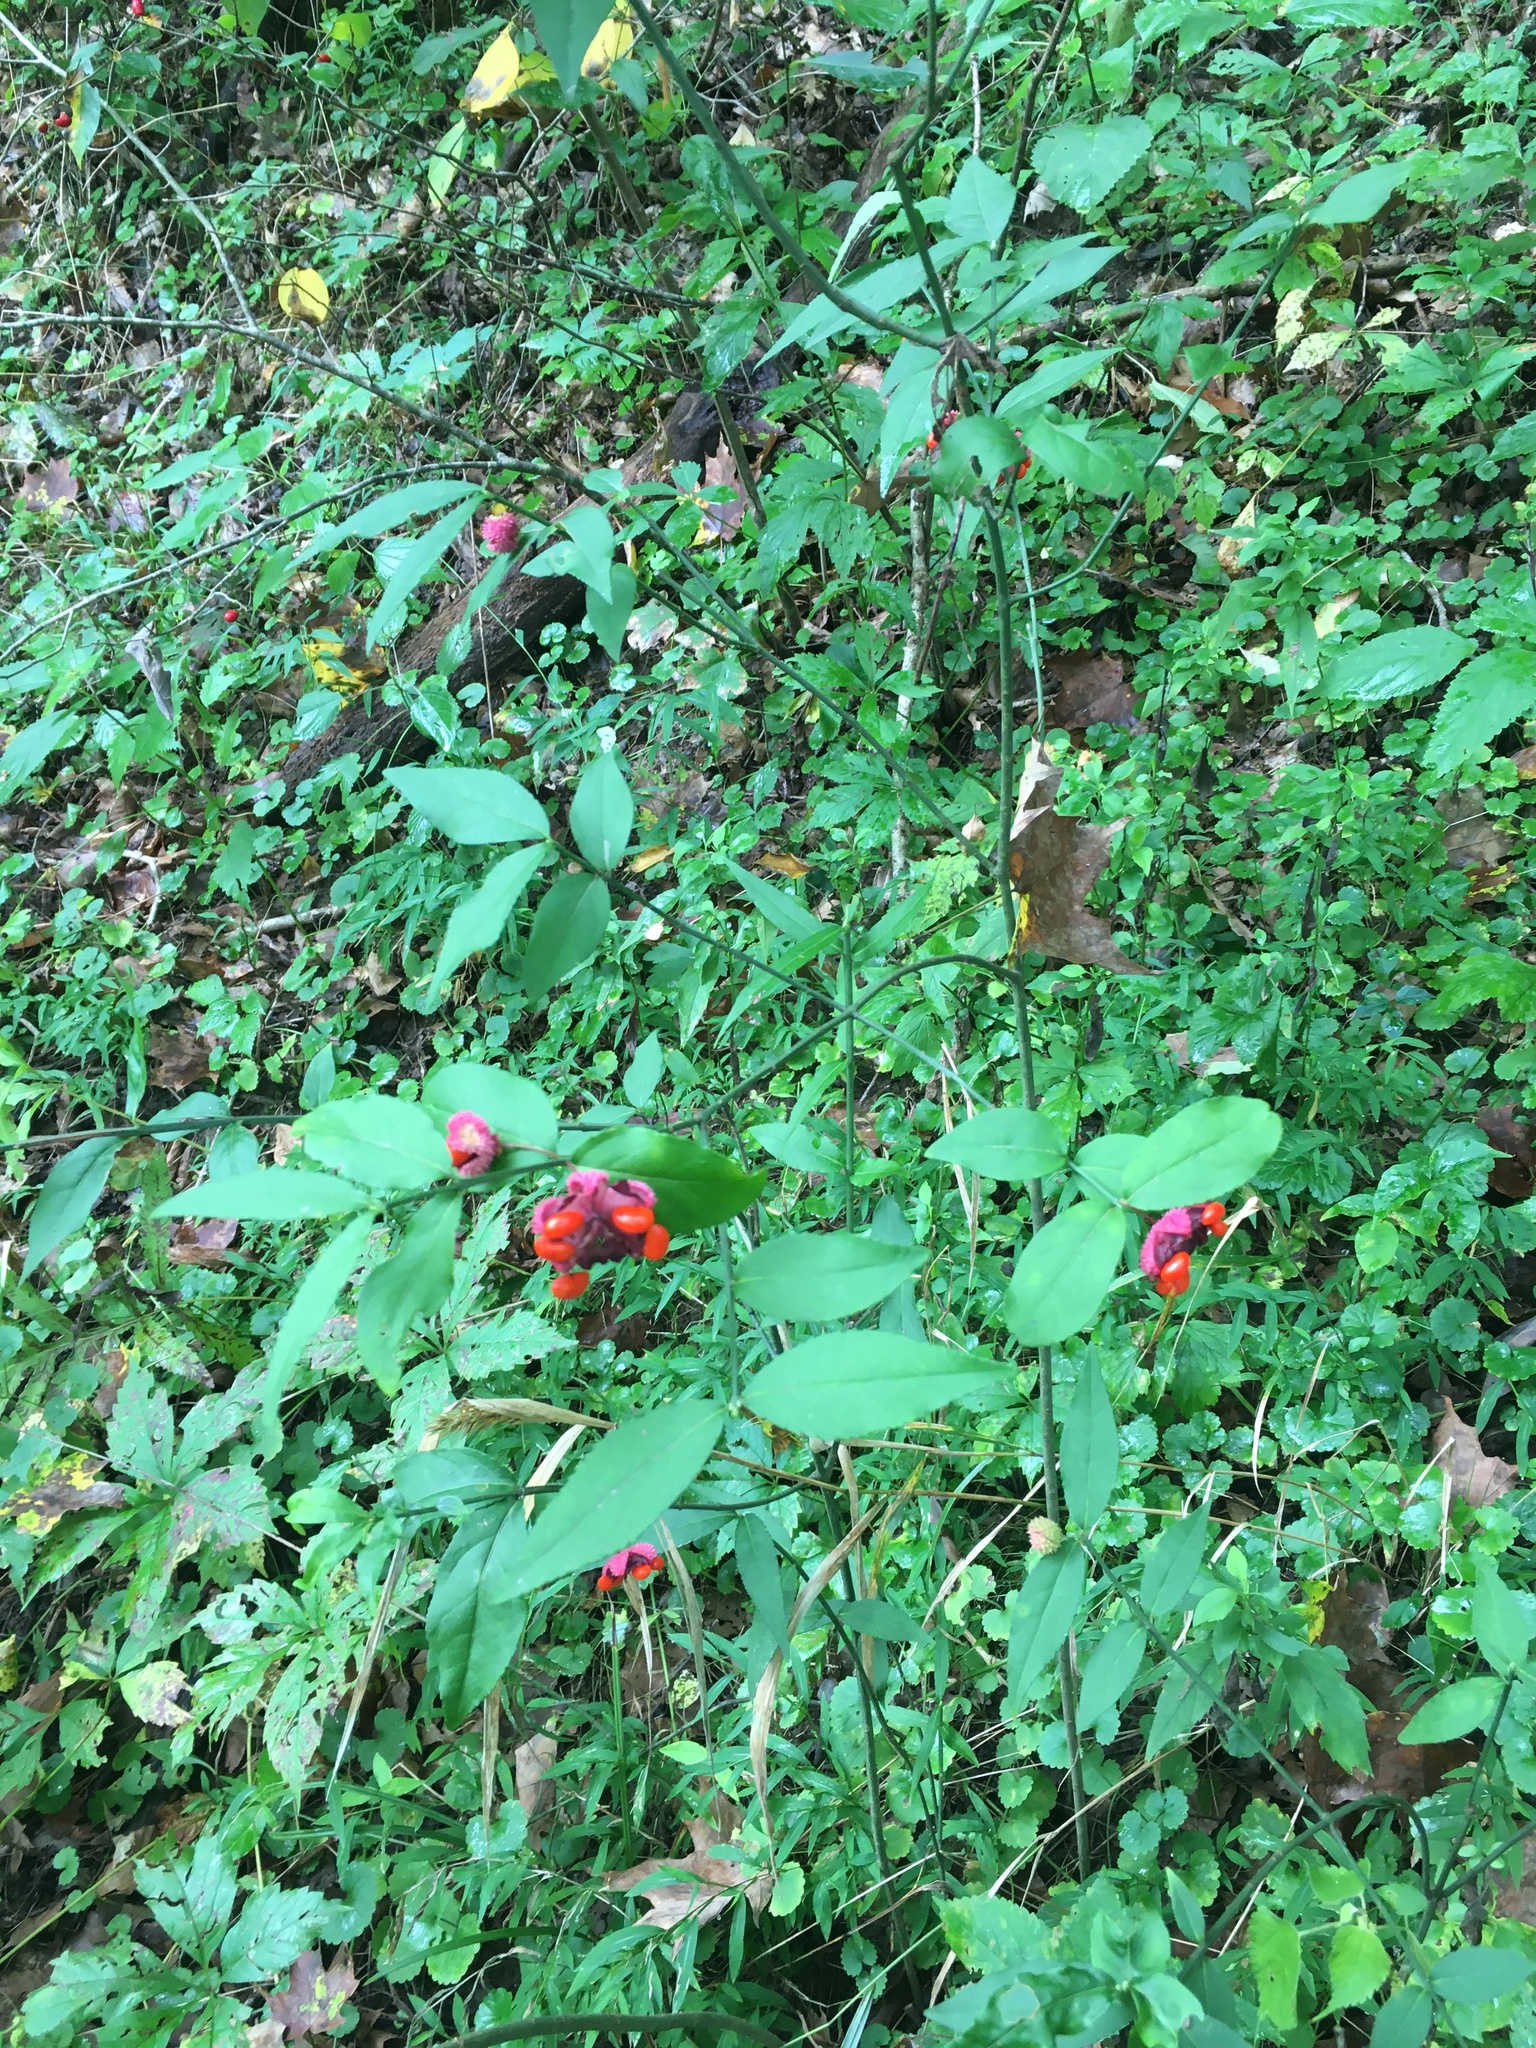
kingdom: Plantae
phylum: Tracheophyta
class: Magnoliopsida
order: Celastrales
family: Celastraceae
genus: Euonymus
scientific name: Euonymus americanus
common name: Bursting-heart
